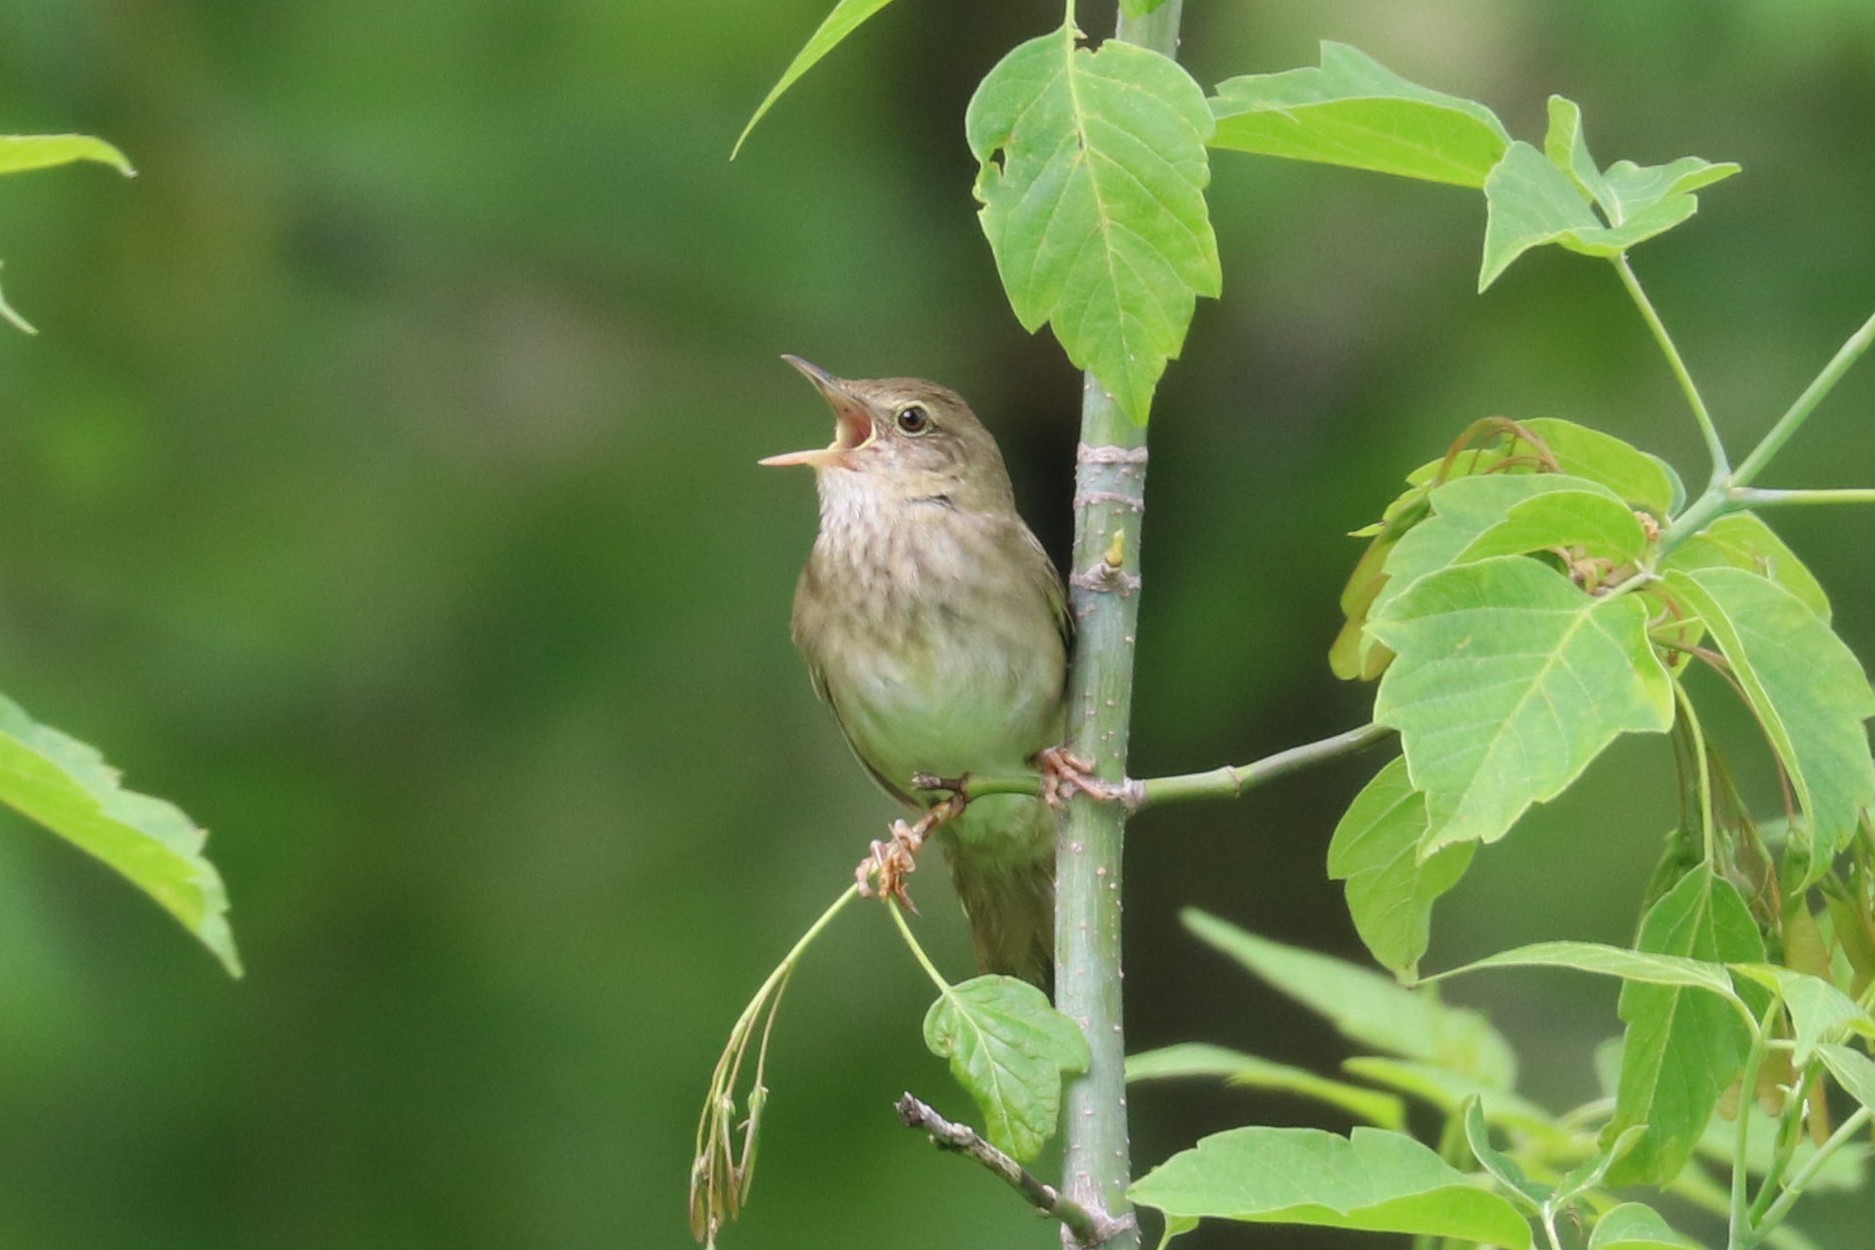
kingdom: Animalia
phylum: Chordata
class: Aves
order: Passeriformes
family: Locustellidae
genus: Locustella
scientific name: Locustella fluviatilis
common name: River warbler
